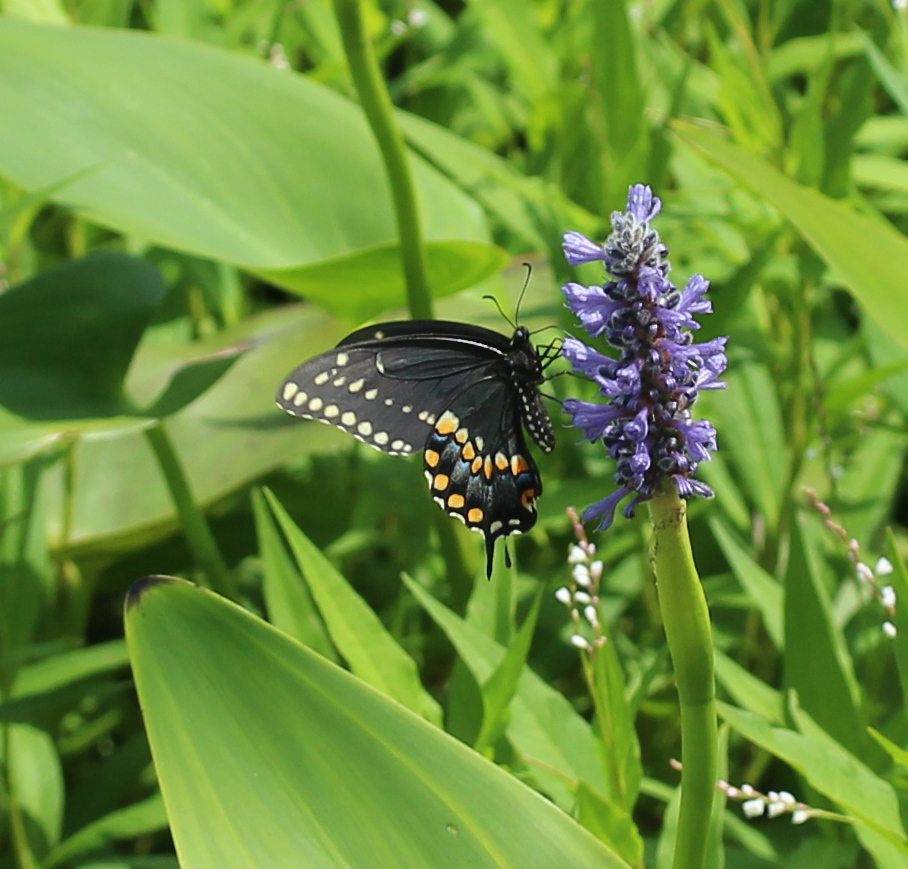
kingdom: Animalia
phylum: Arthropoda
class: Insecta
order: Lepidoptera
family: Papilionidae
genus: Papilio
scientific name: Papilio polyxenes
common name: Black swallowtail
